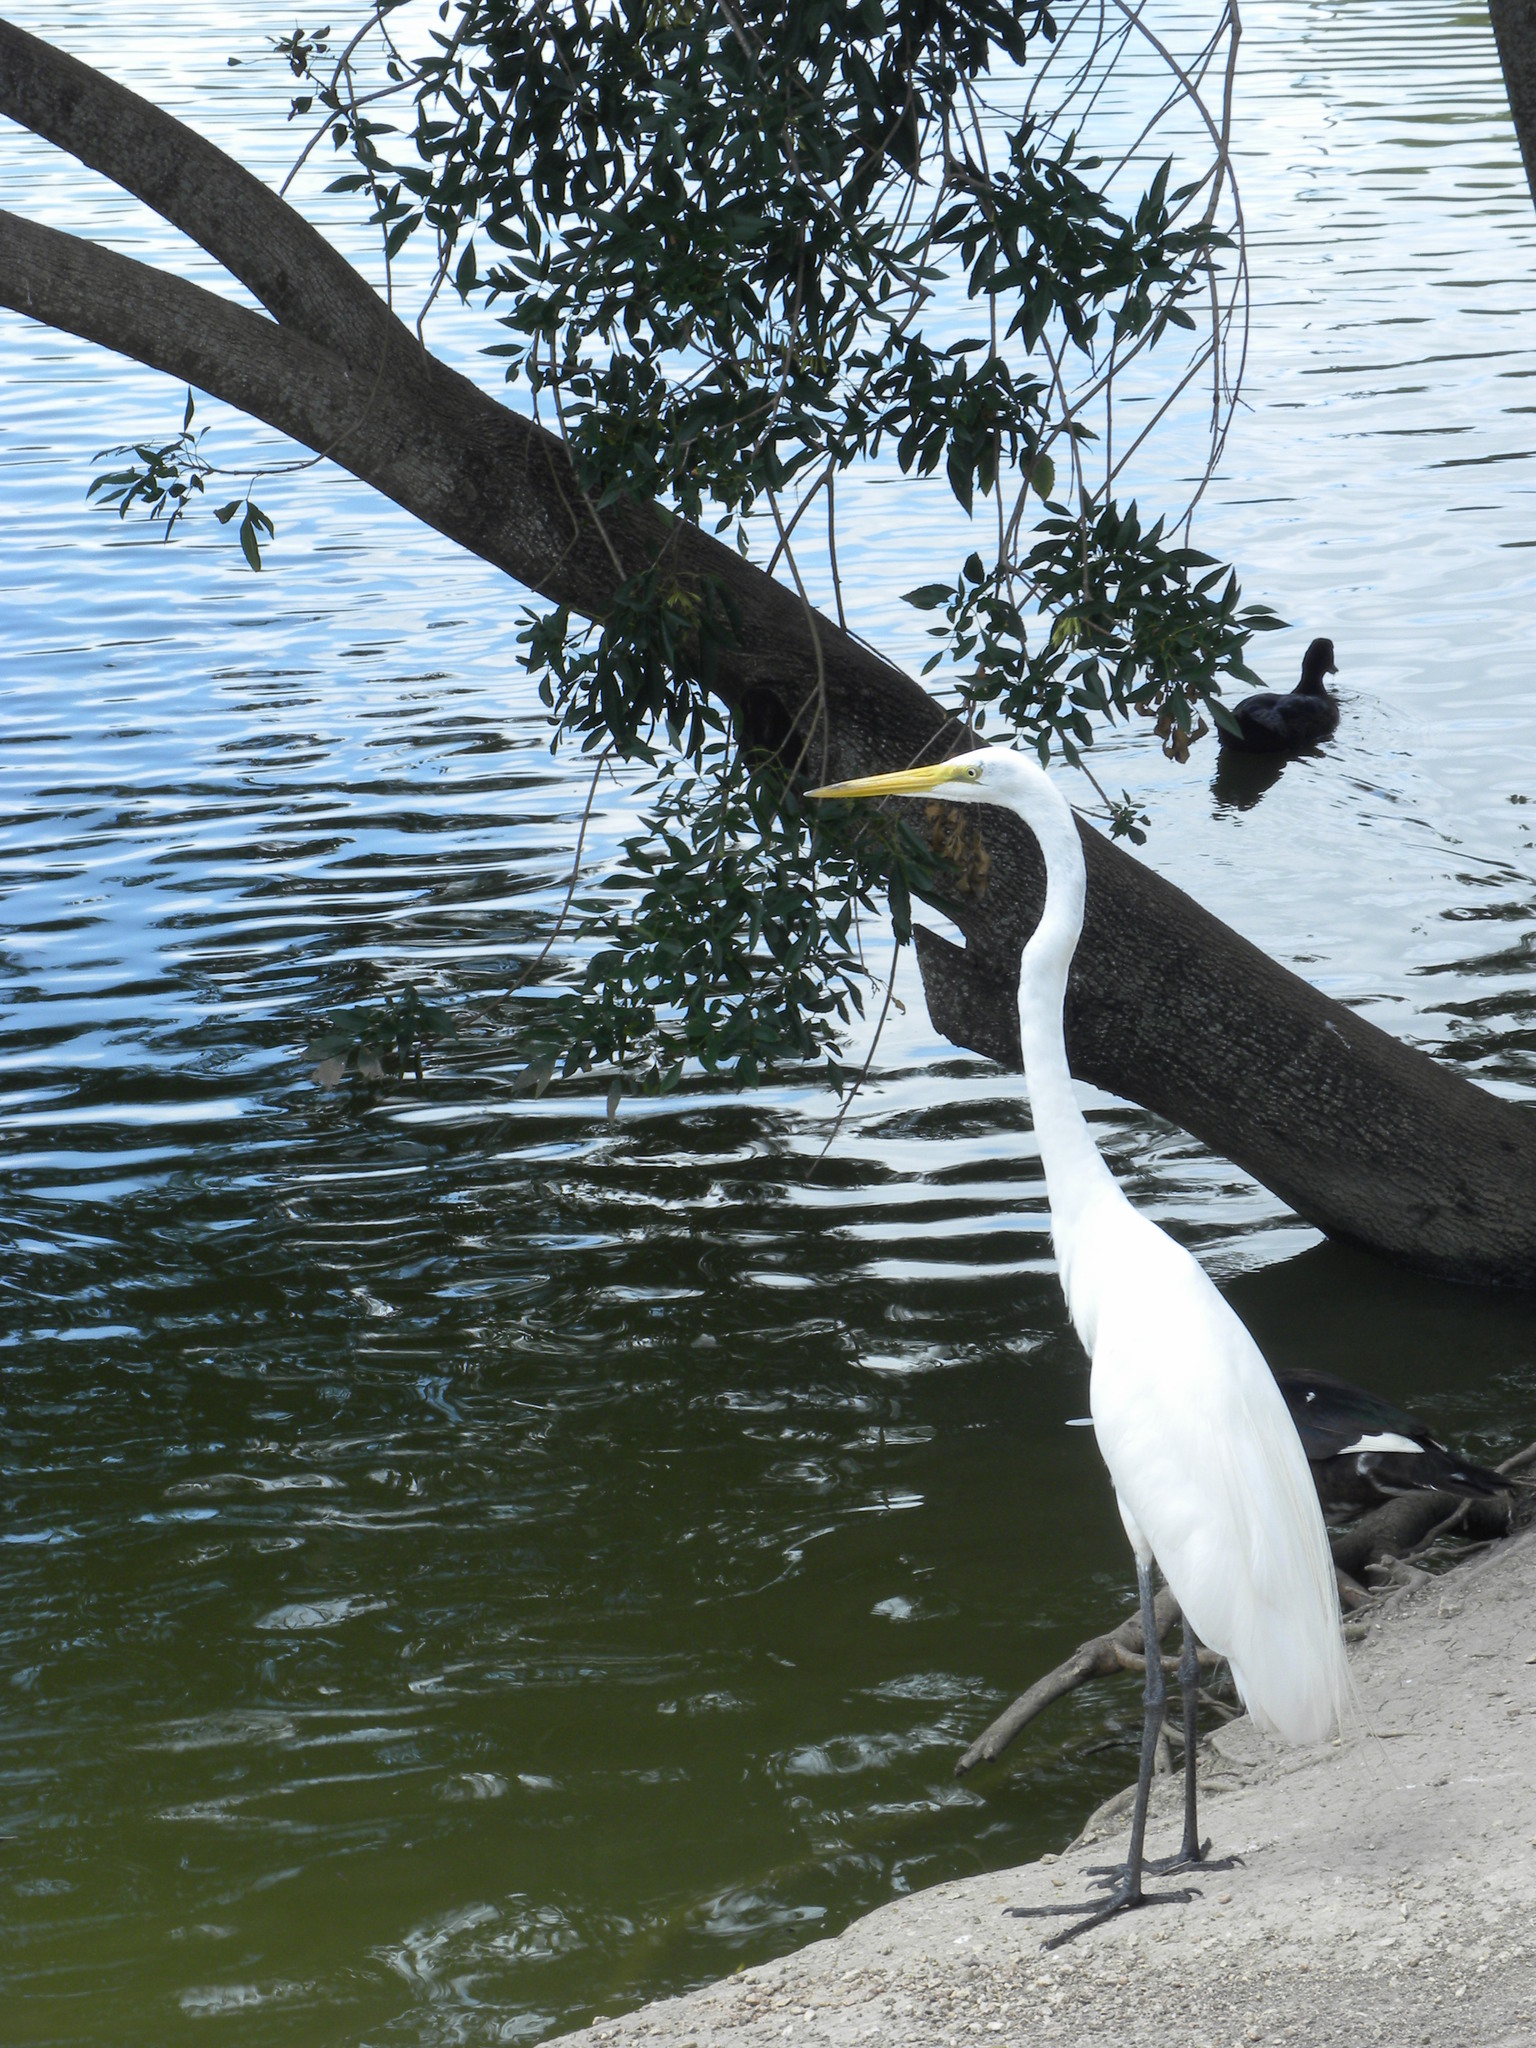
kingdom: Animalia
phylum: Chordata
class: Aves
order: Pelecaniformes
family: Ardeidae
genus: Ardea
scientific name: Ardea alba
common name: Great egret
